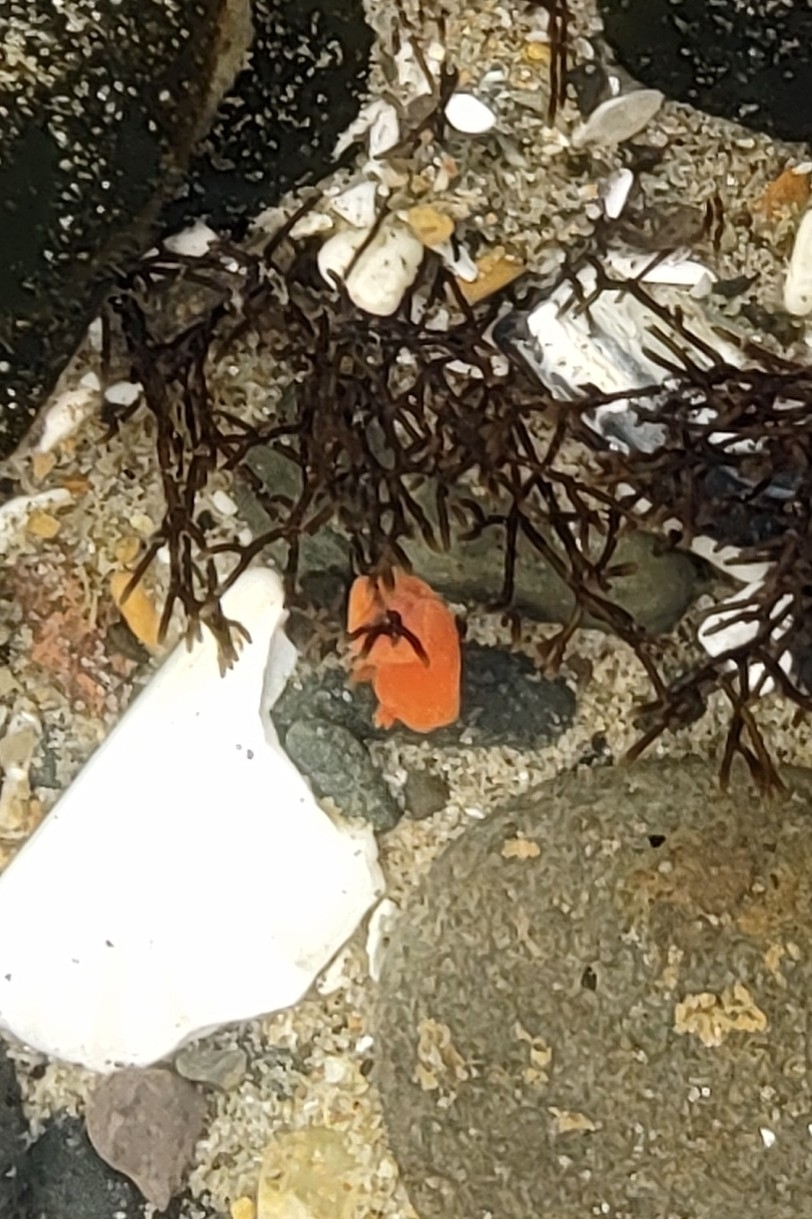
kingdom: Animalia
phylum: Mollusca
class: Gastropoda
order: Nudibranchia
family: Discodorididae
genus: Rostanga
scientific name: Rostanga pulchra
